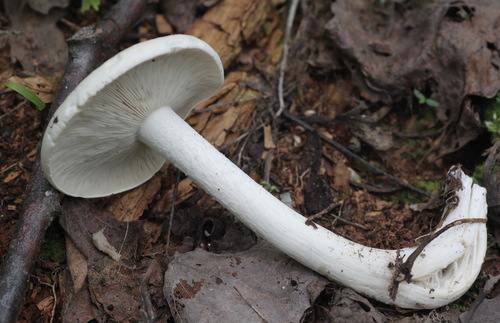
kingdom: Fungi
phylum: Basidiomycota
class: Agaricomycetes
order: Agaricales
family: Omphalotaceae
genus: Rhodocollybia
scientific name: Rhodocollybia maculata
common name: Spotted tough-shank
